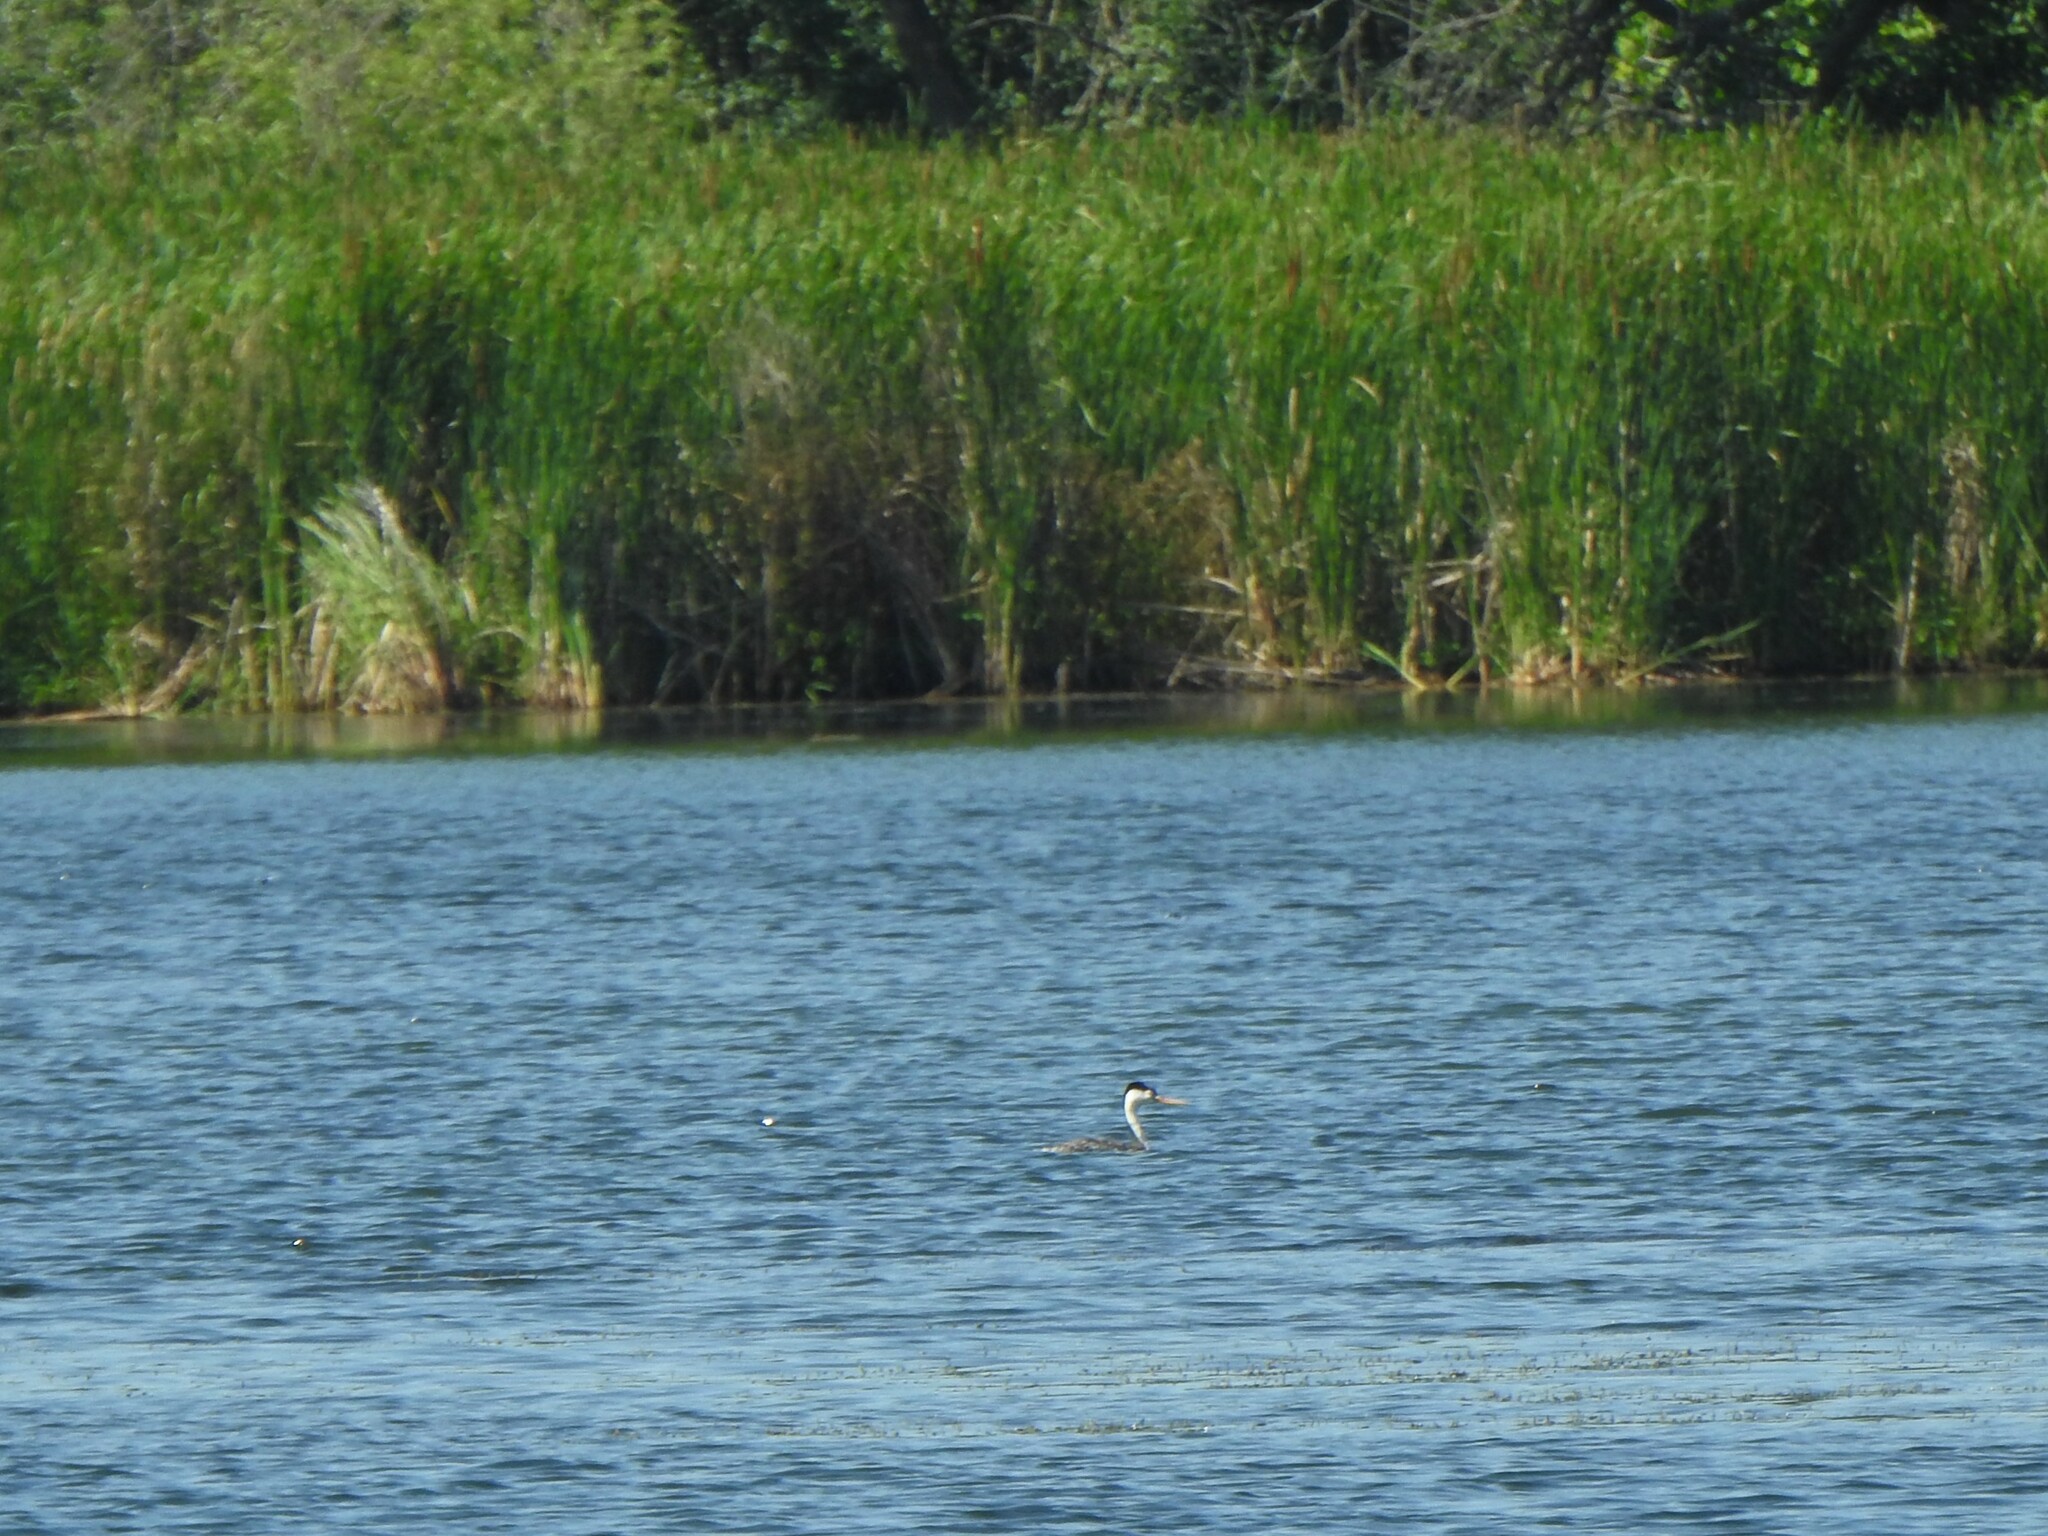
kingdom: Animalia
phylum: Chordata
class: Aves
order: Podicipediformes
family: Podicipedidae
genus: Aechmophorus
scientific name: Aechmophorus clarkii
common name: Clark's grebe
